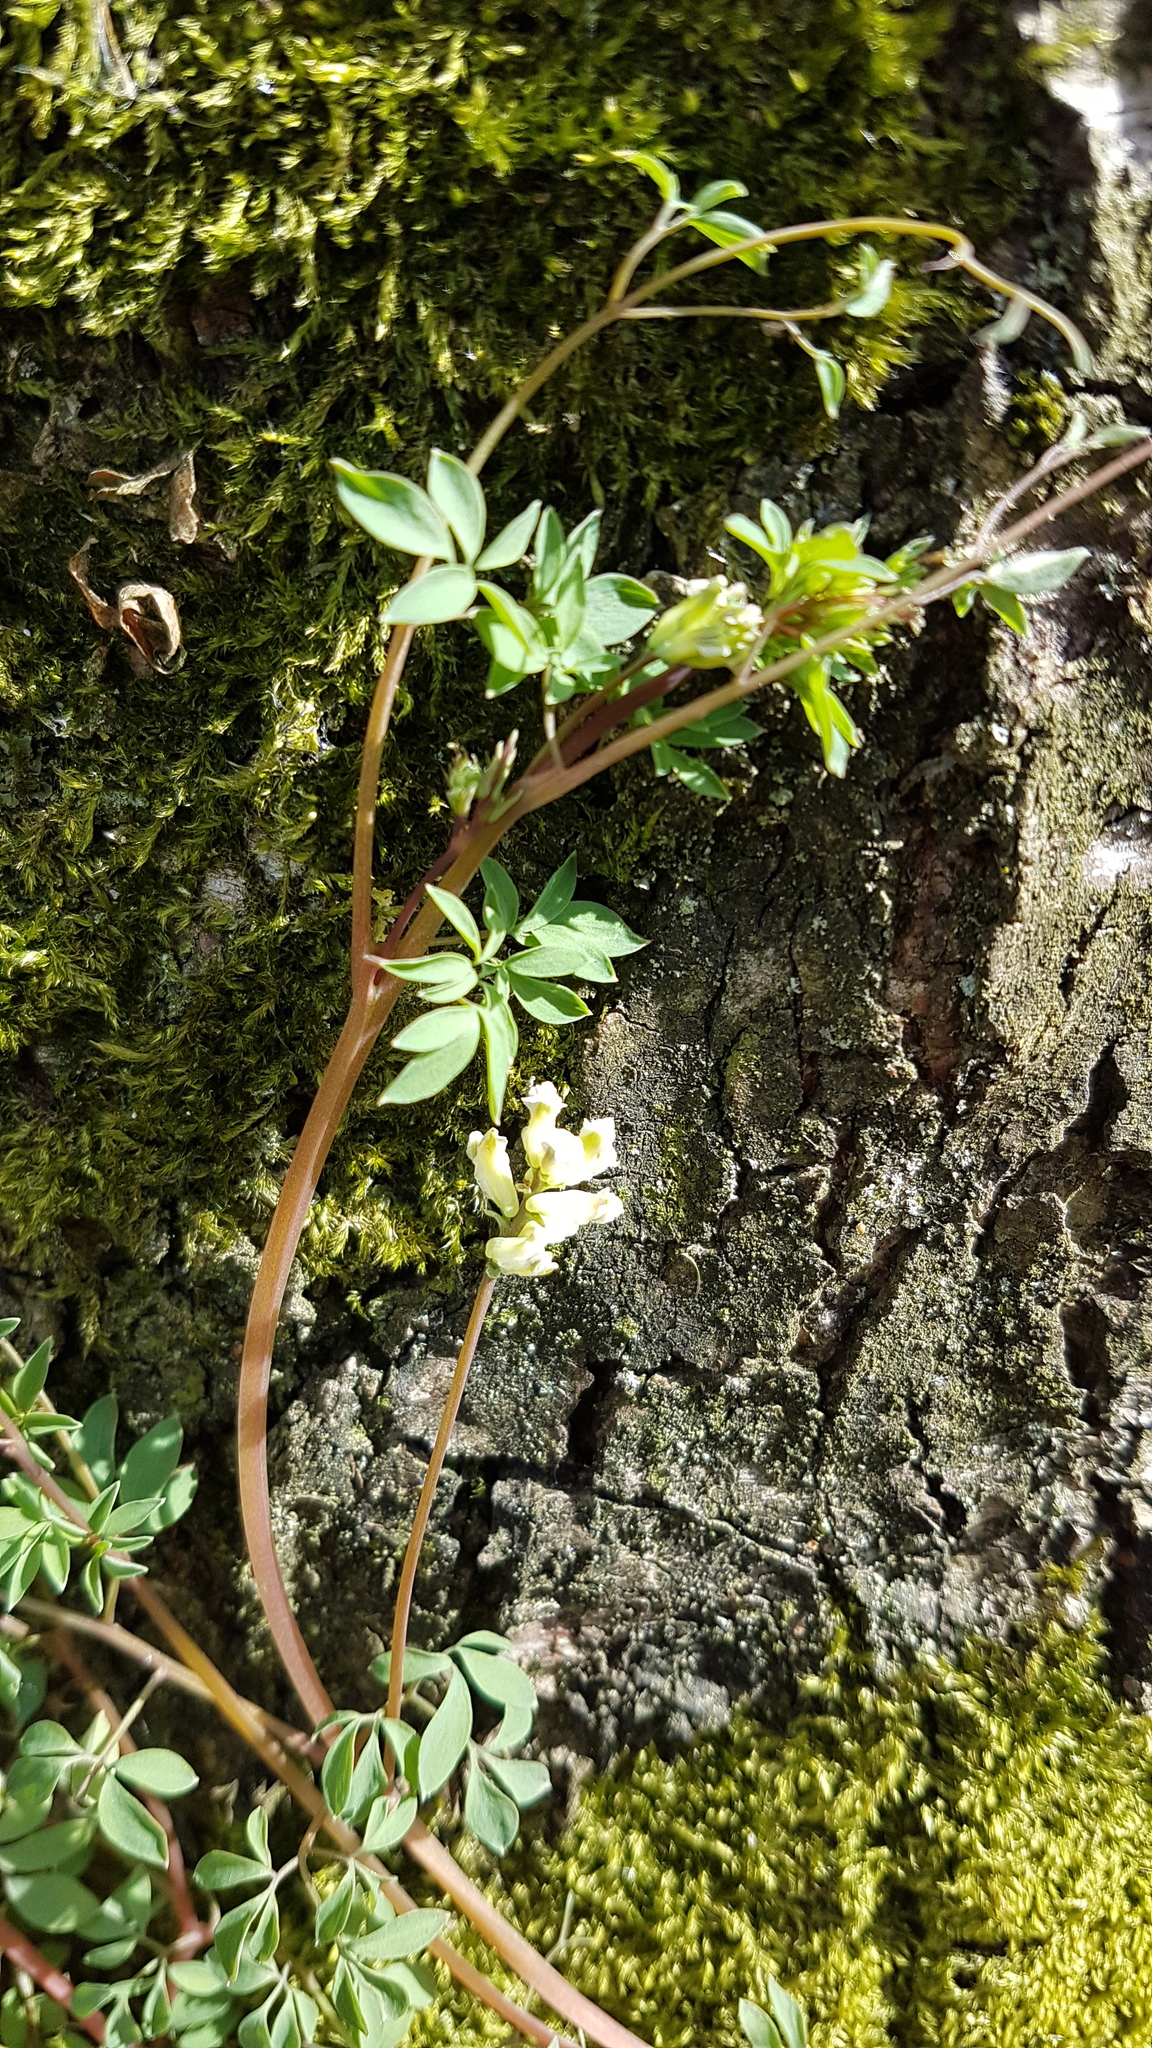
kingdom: Plantae
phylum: Tracheophyta
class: Magnoliopsida
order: Ranunculales
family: Papaveraceae
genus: Ceratocapnos
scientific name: Ceratocapnos claviculata
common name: Climbing corydalis
